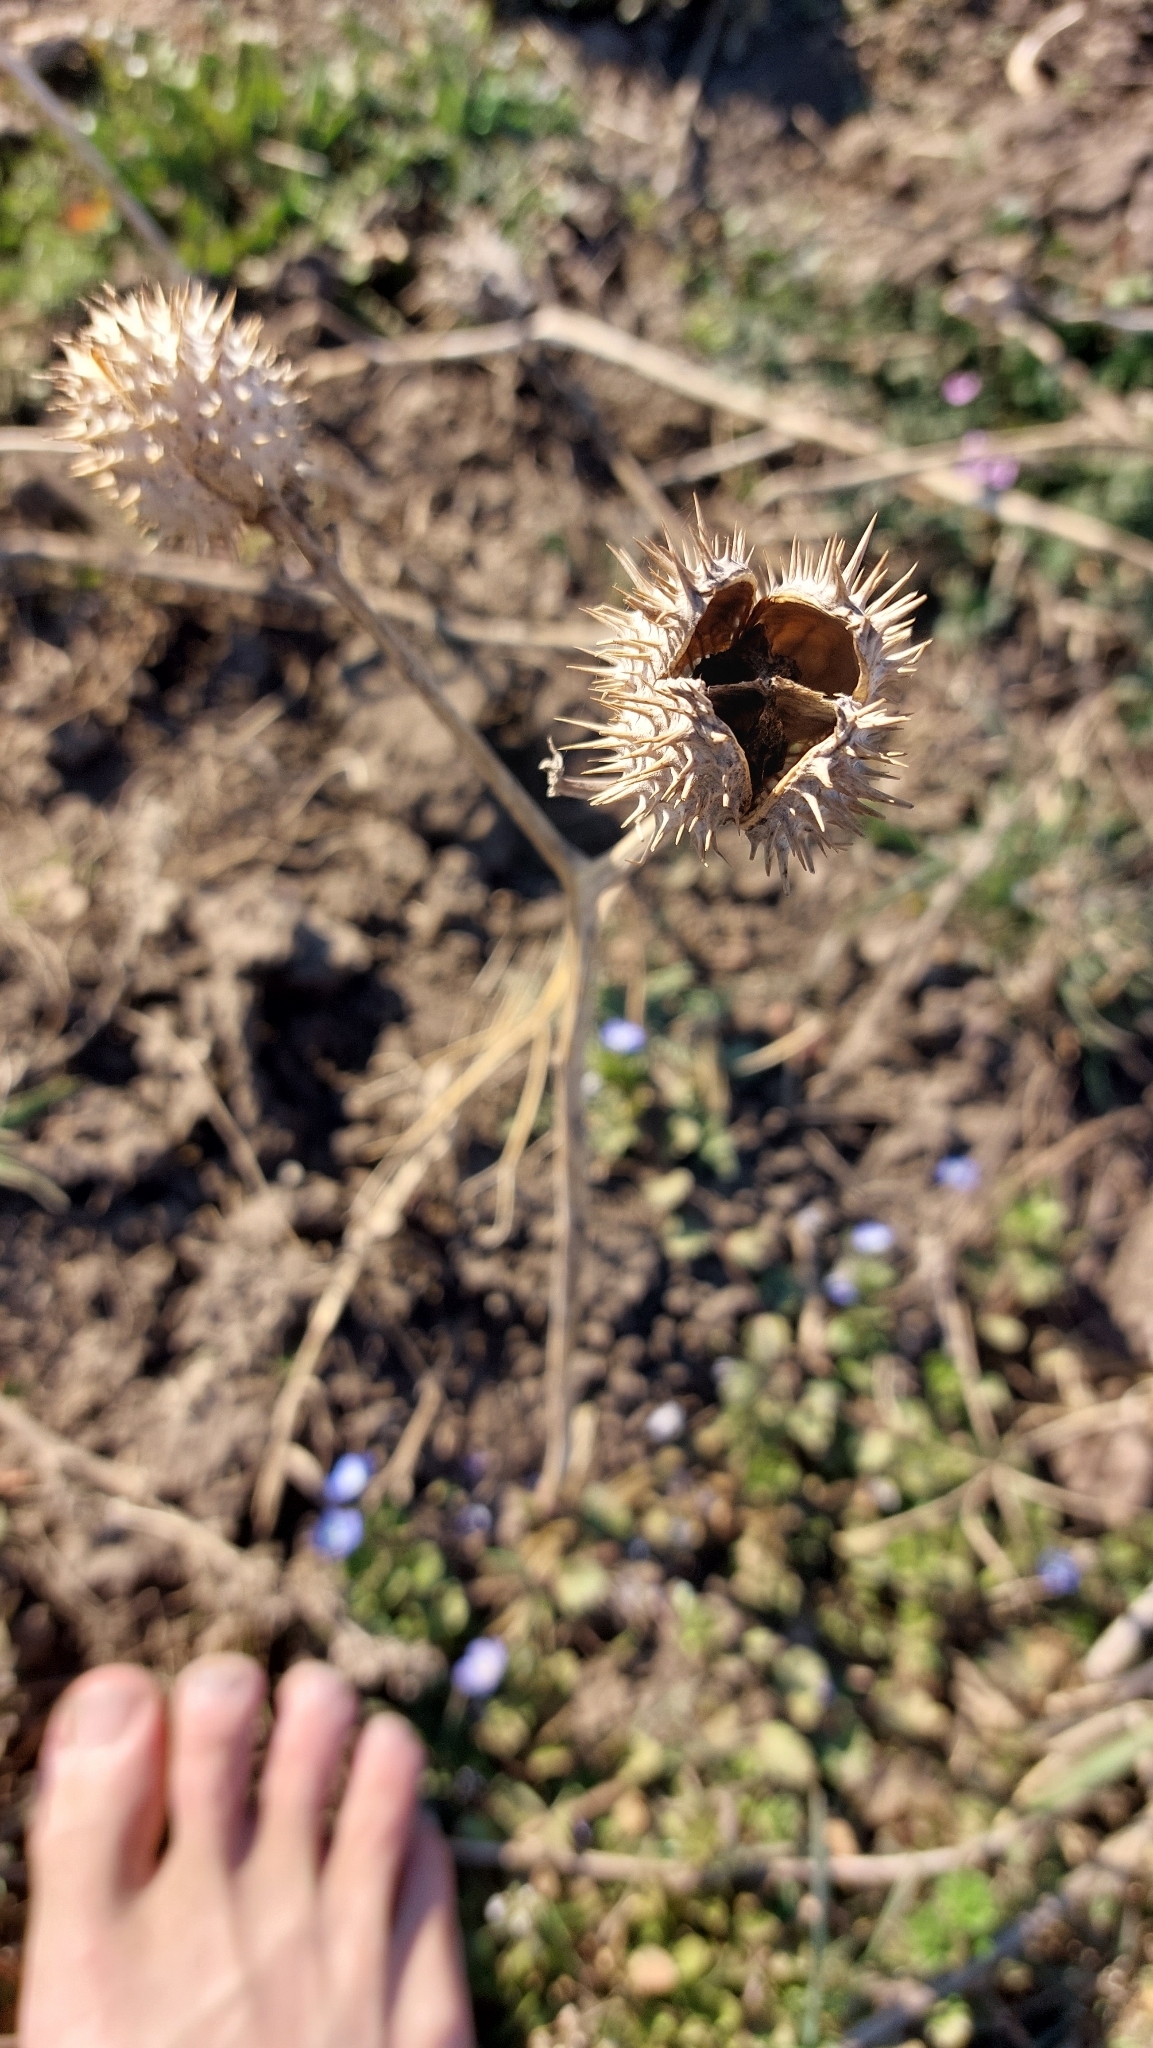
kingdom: Plantae
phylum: Tracheophyta
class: Magnoliopsida
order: Solanales
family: Solanaceae
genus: Datura
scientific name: Datura stramonium
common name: Thorn-apple
